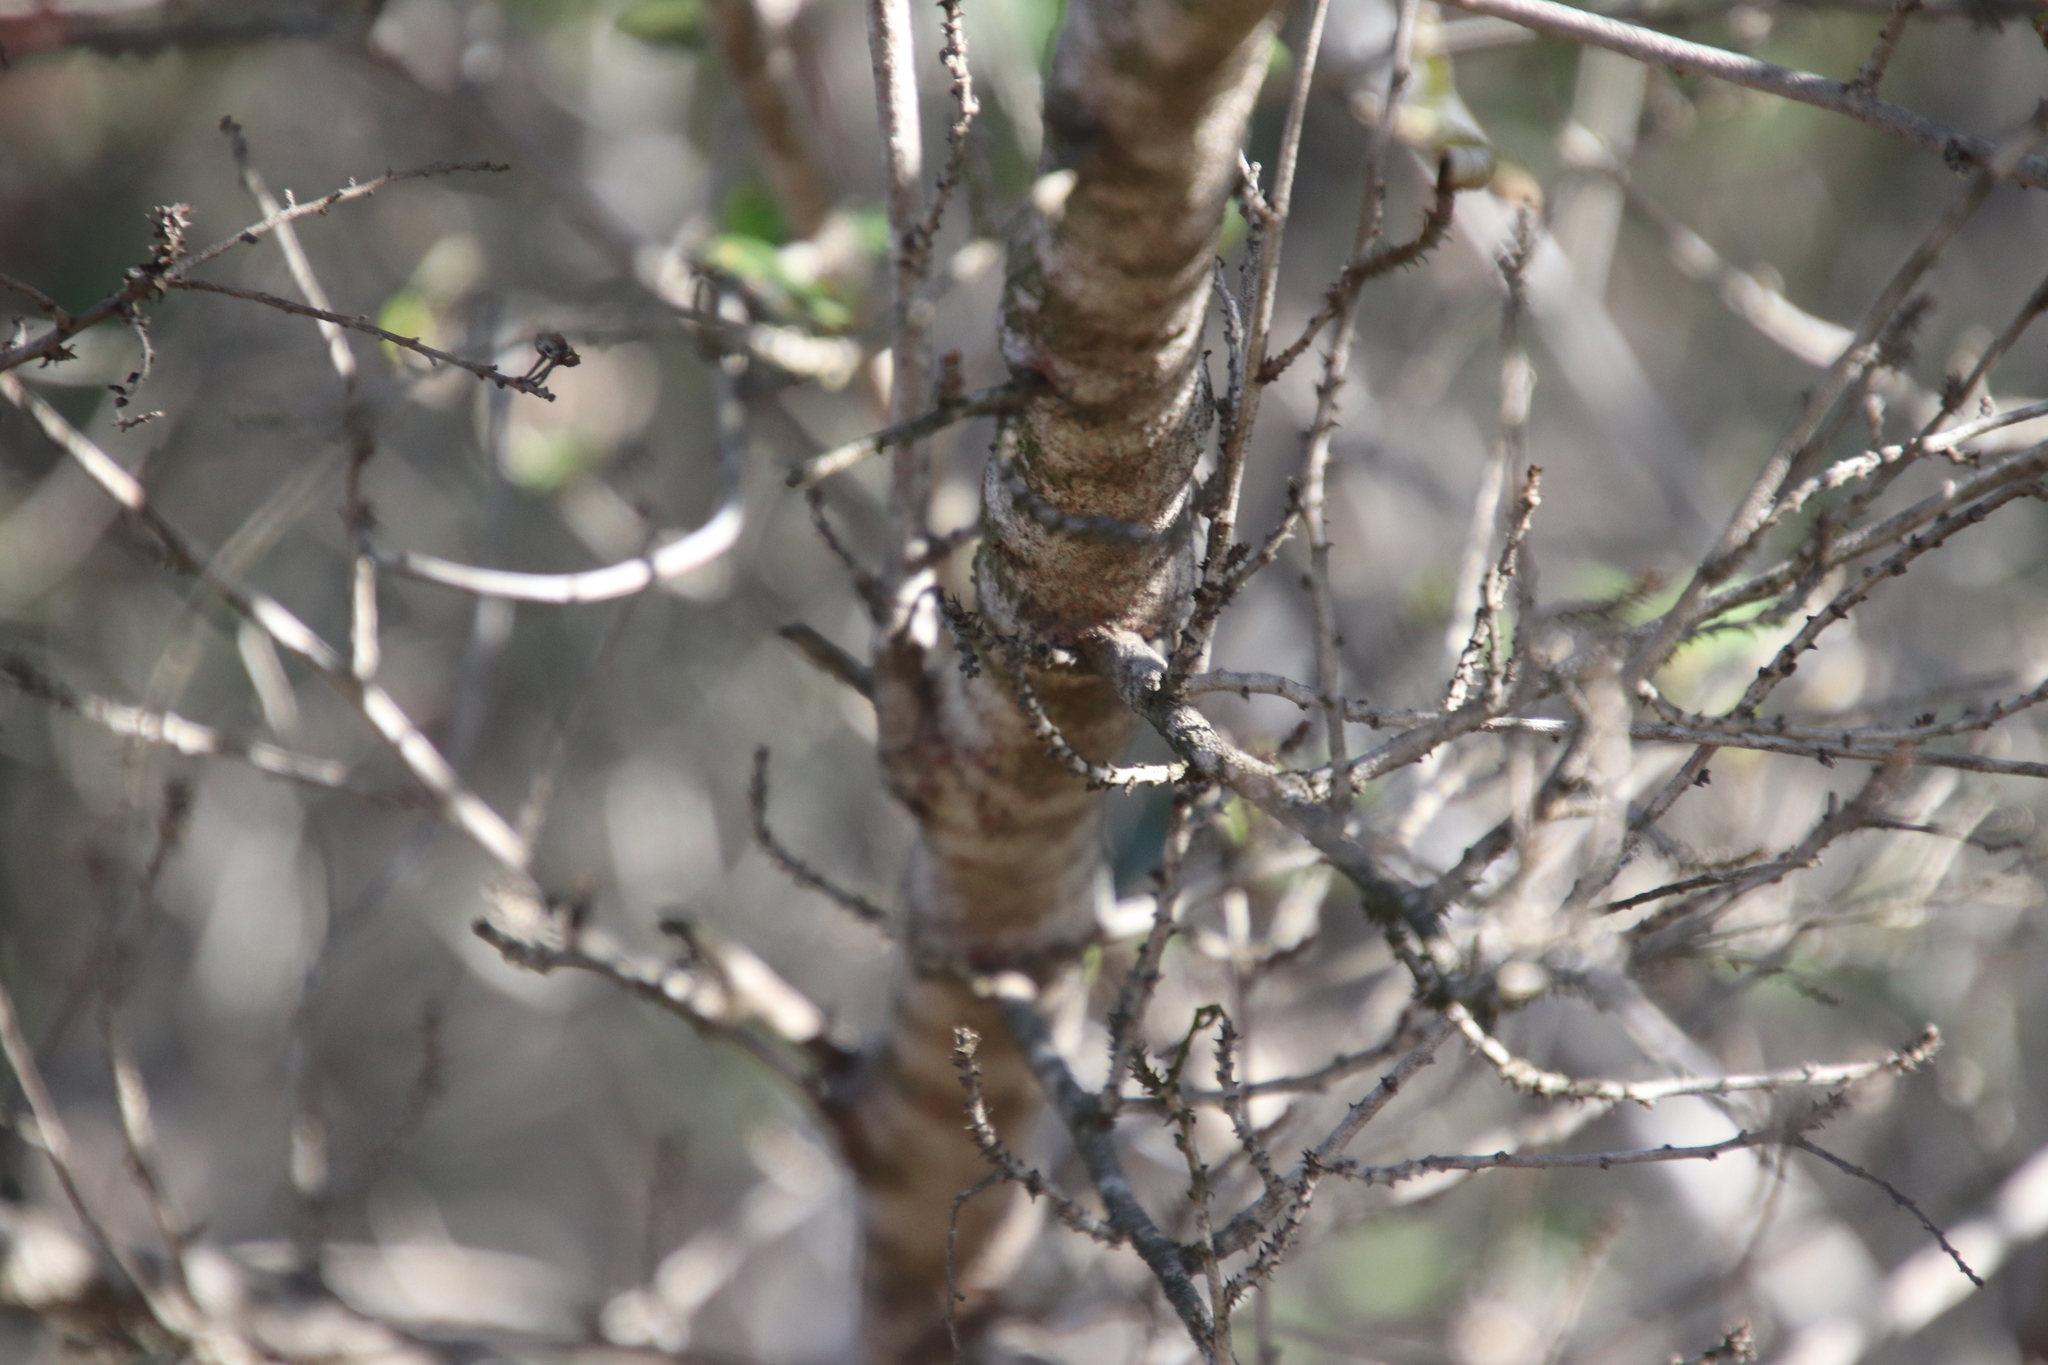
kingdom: Plantae
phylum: Tracheophyta
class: Magnoliopsida
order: Rosales
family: Rhamnaceae
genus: Ceanothus
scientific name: Ceanothus tomentosus
